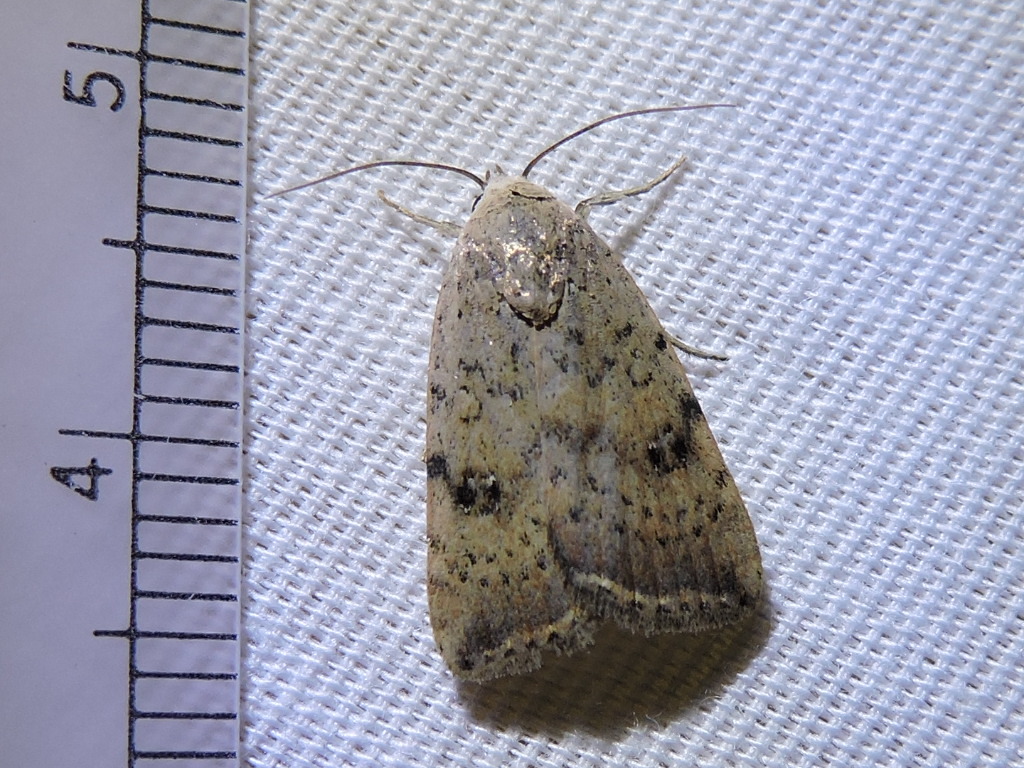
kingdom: Animalia
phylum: Arthropoda
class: Insecta
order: Lepidoptera
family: Noctuidae
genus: Micrathetis
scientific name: Micrathetis triplex
